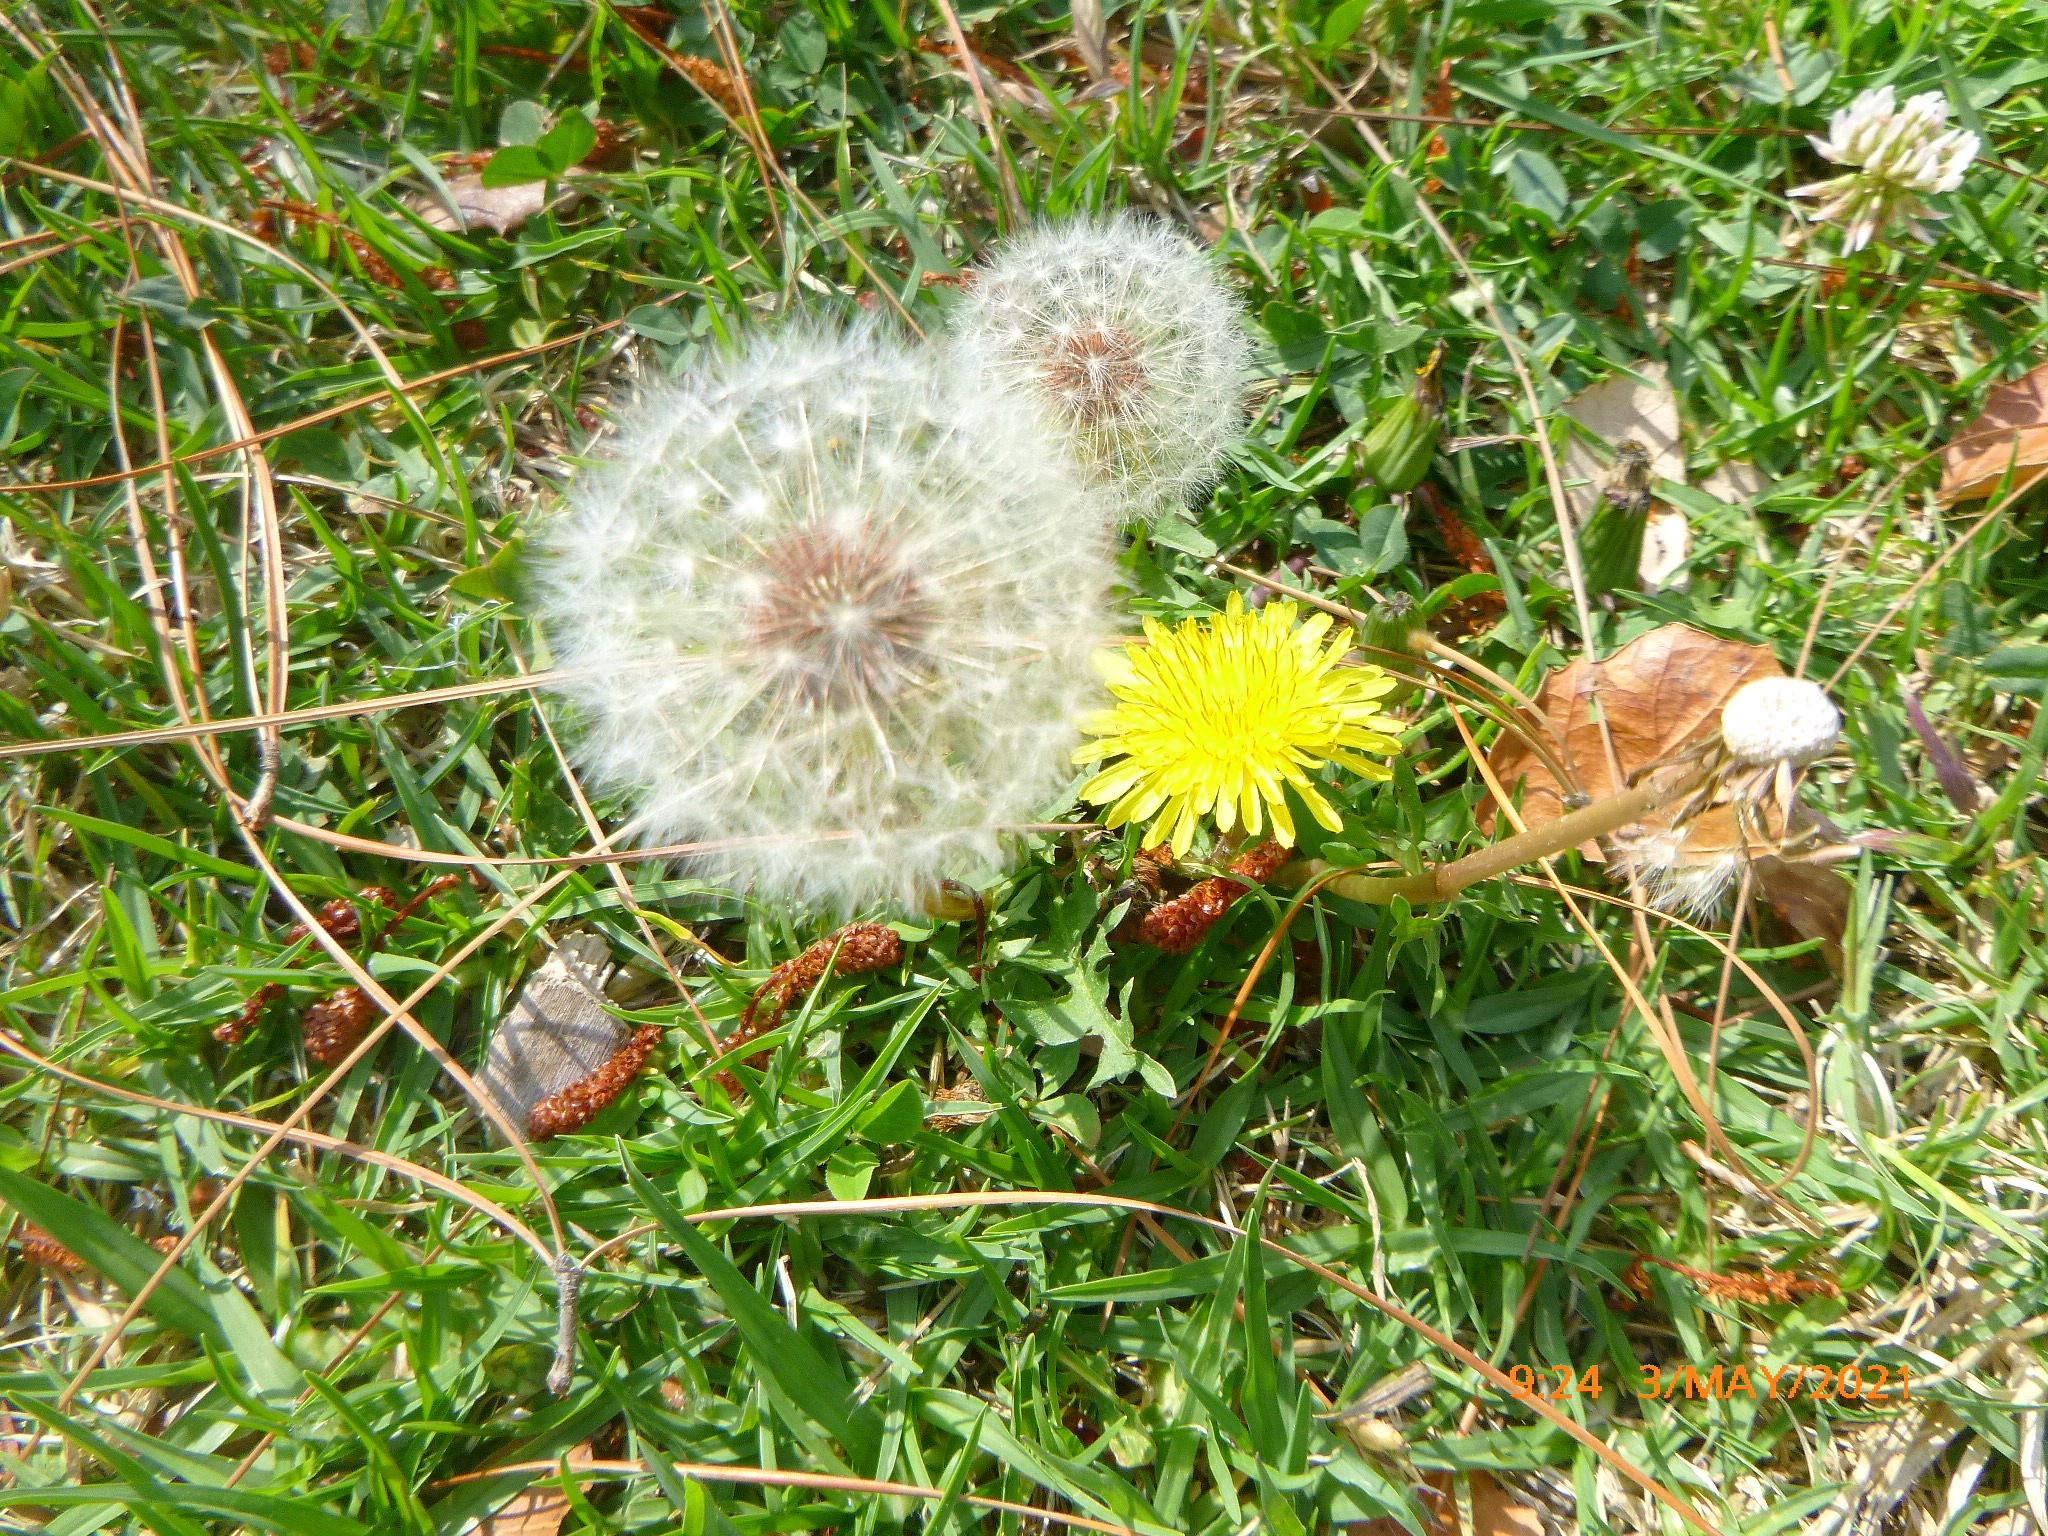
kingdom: Plantae
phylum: Tracheophyta
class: Magnoliopsida
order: Asterales
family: Asteraceae
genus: Taraxacum
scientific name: Taraxacum officinale
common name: Common dandelion
